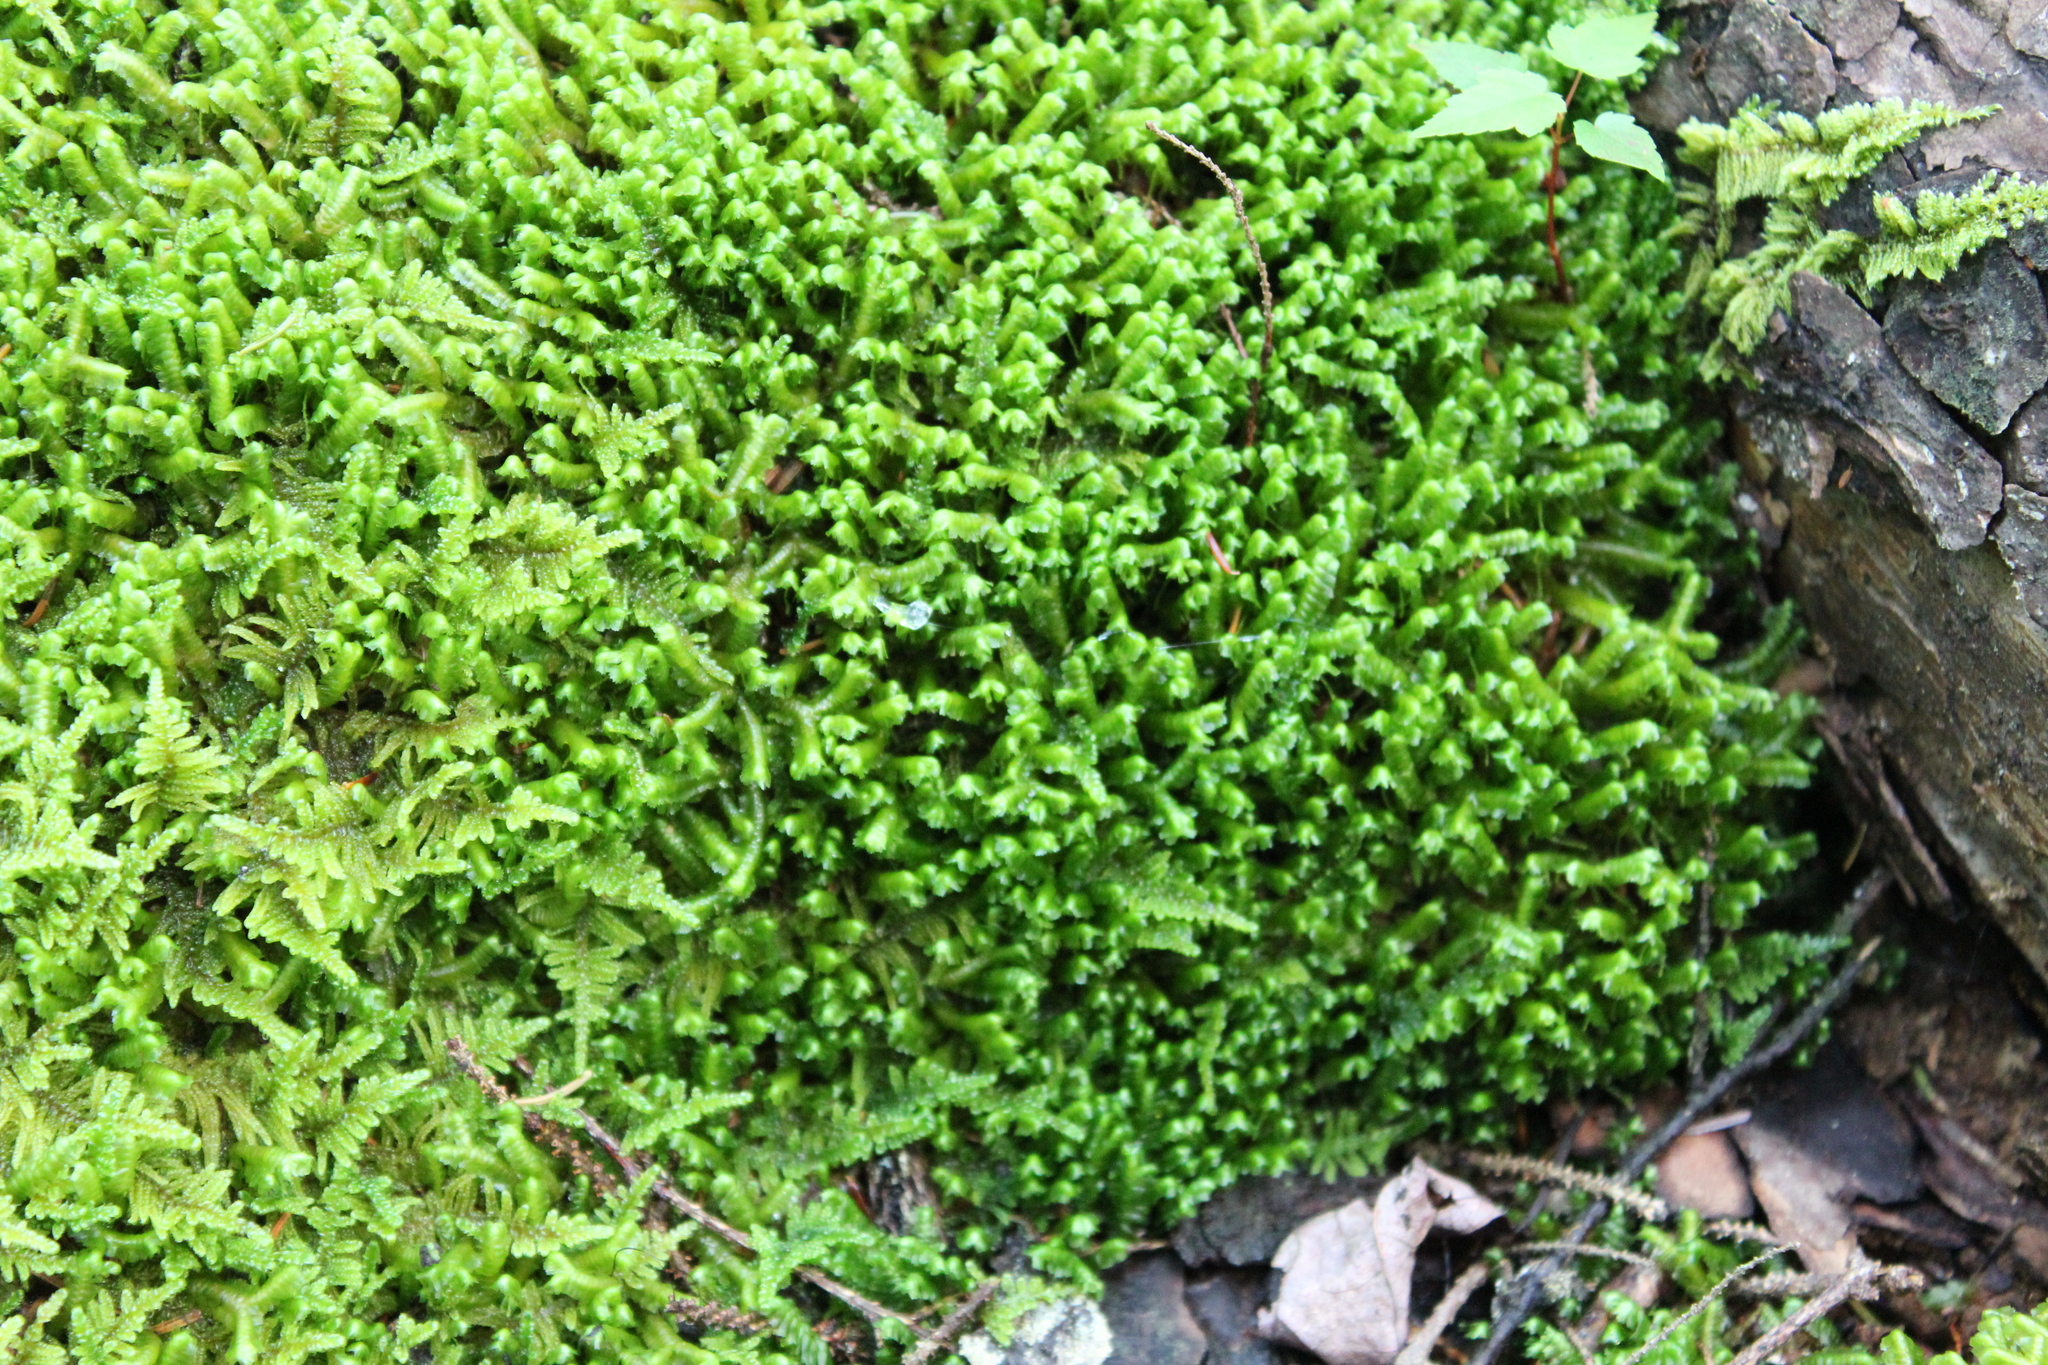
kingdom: Plantae
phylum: Marchantiophyta
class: Jungermanniopsida
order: Jungermanniales
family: Lepidoziaceae
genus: Bazzania
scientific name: Bazzania trilobata
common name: Three-lobed whipwort
